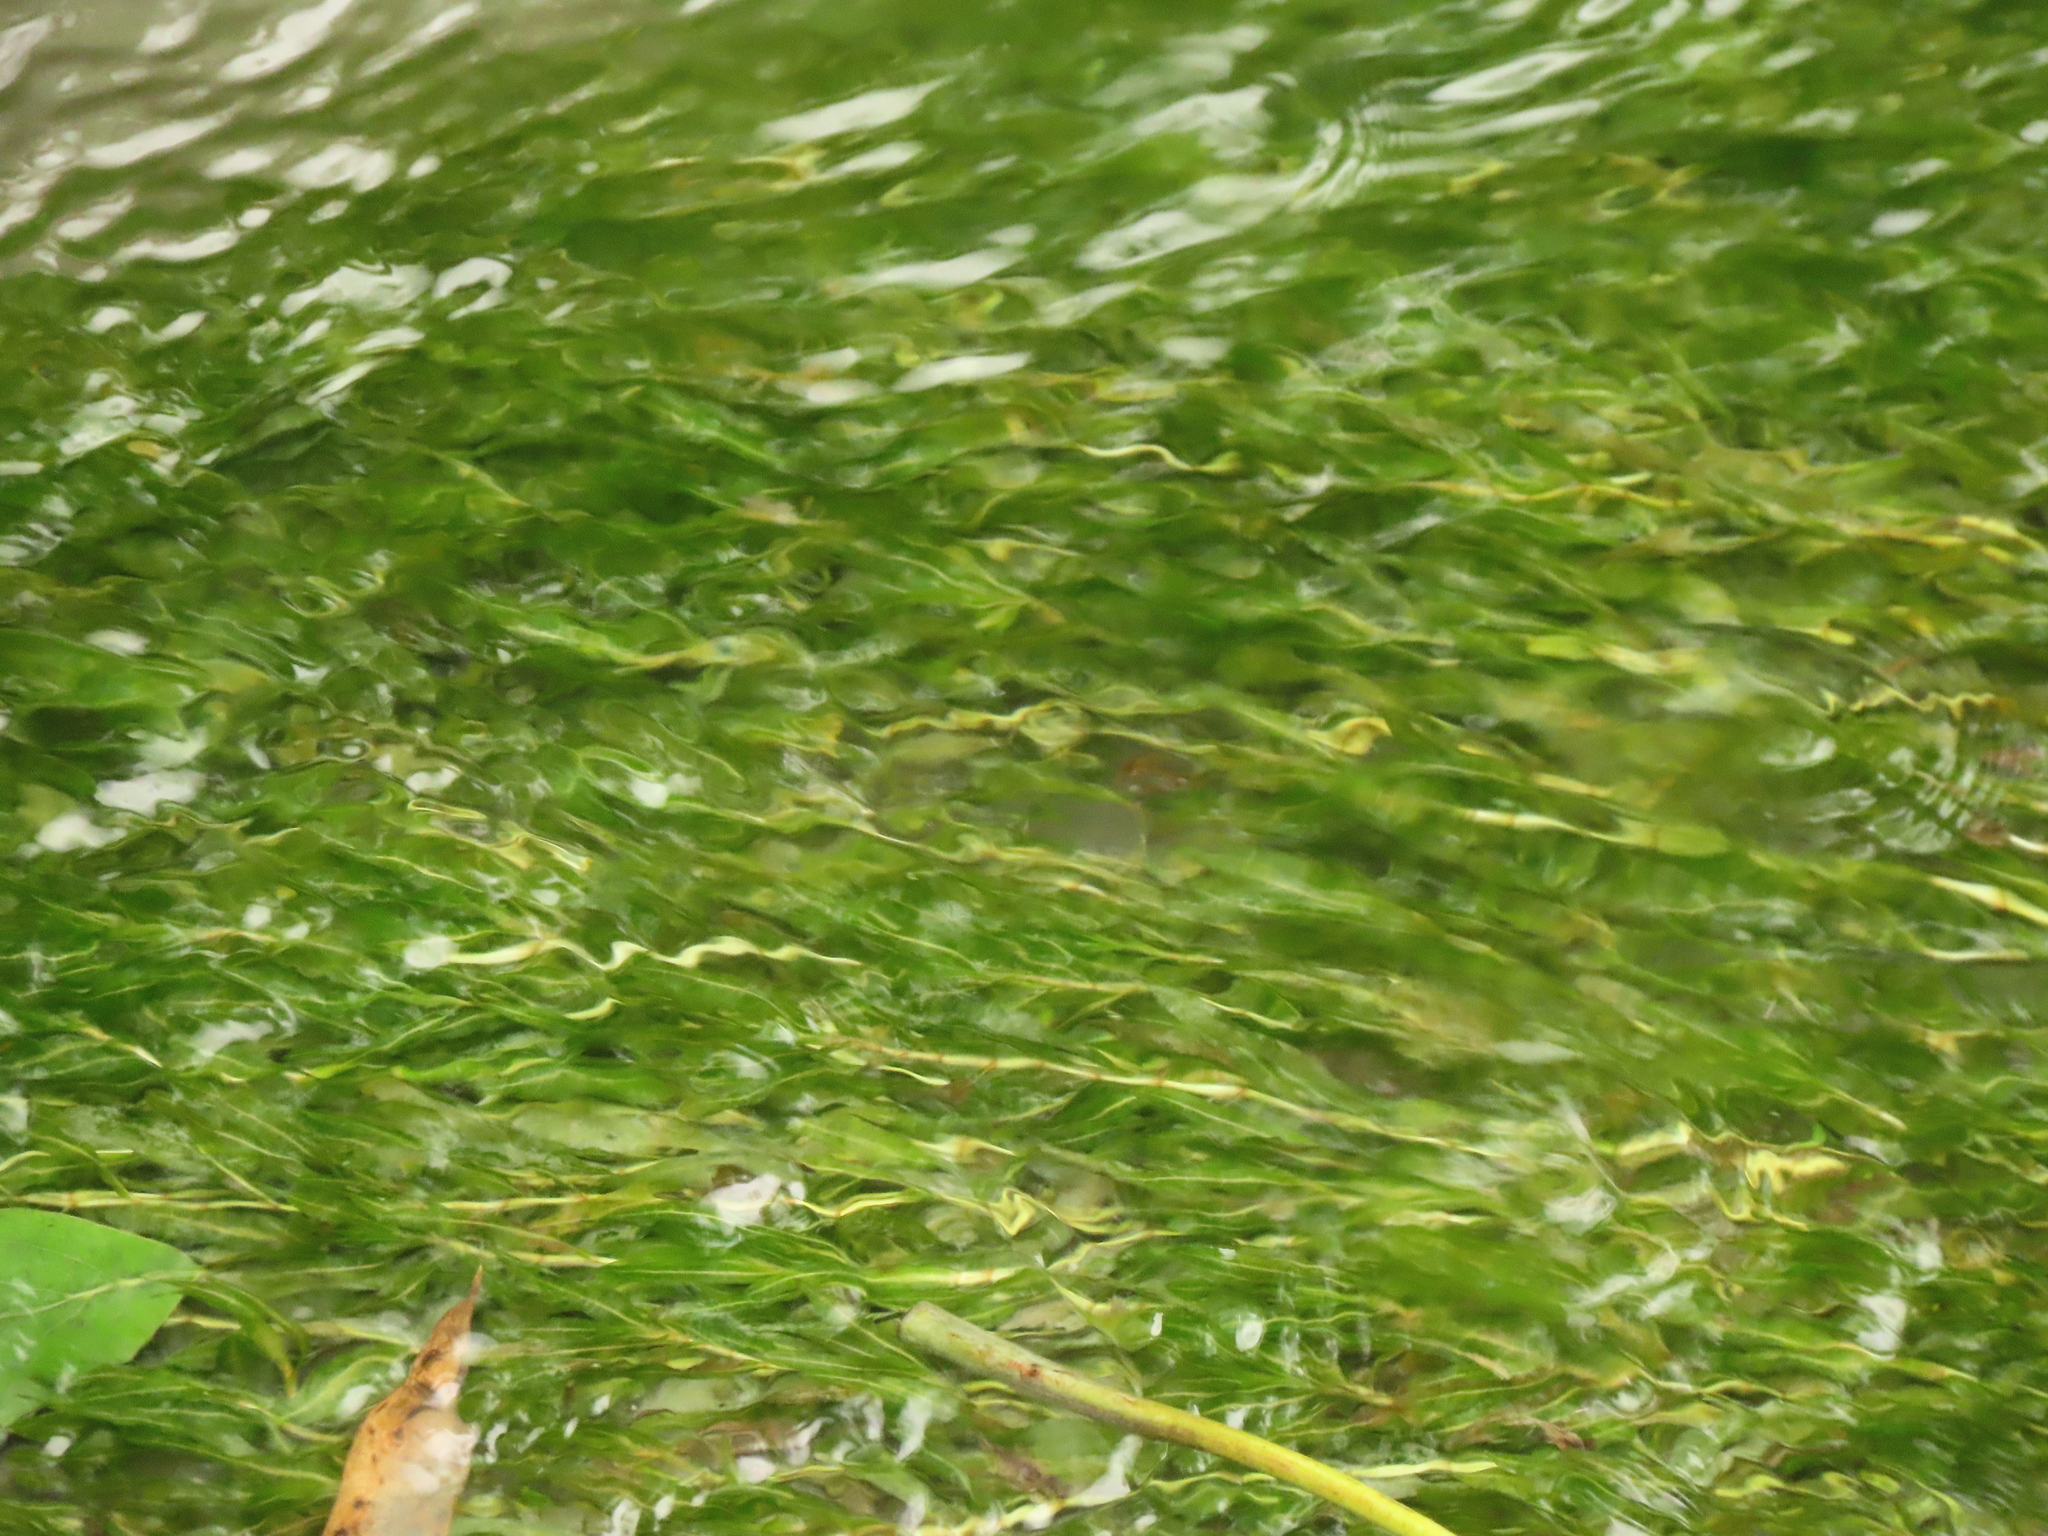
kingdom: Plantae
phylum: Tracheophyta
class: Liliopsida
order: Alismatales
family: Potamogetonaceae
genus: Potamogeton
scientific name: Potamogeton crispus
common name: Curled pondweed
